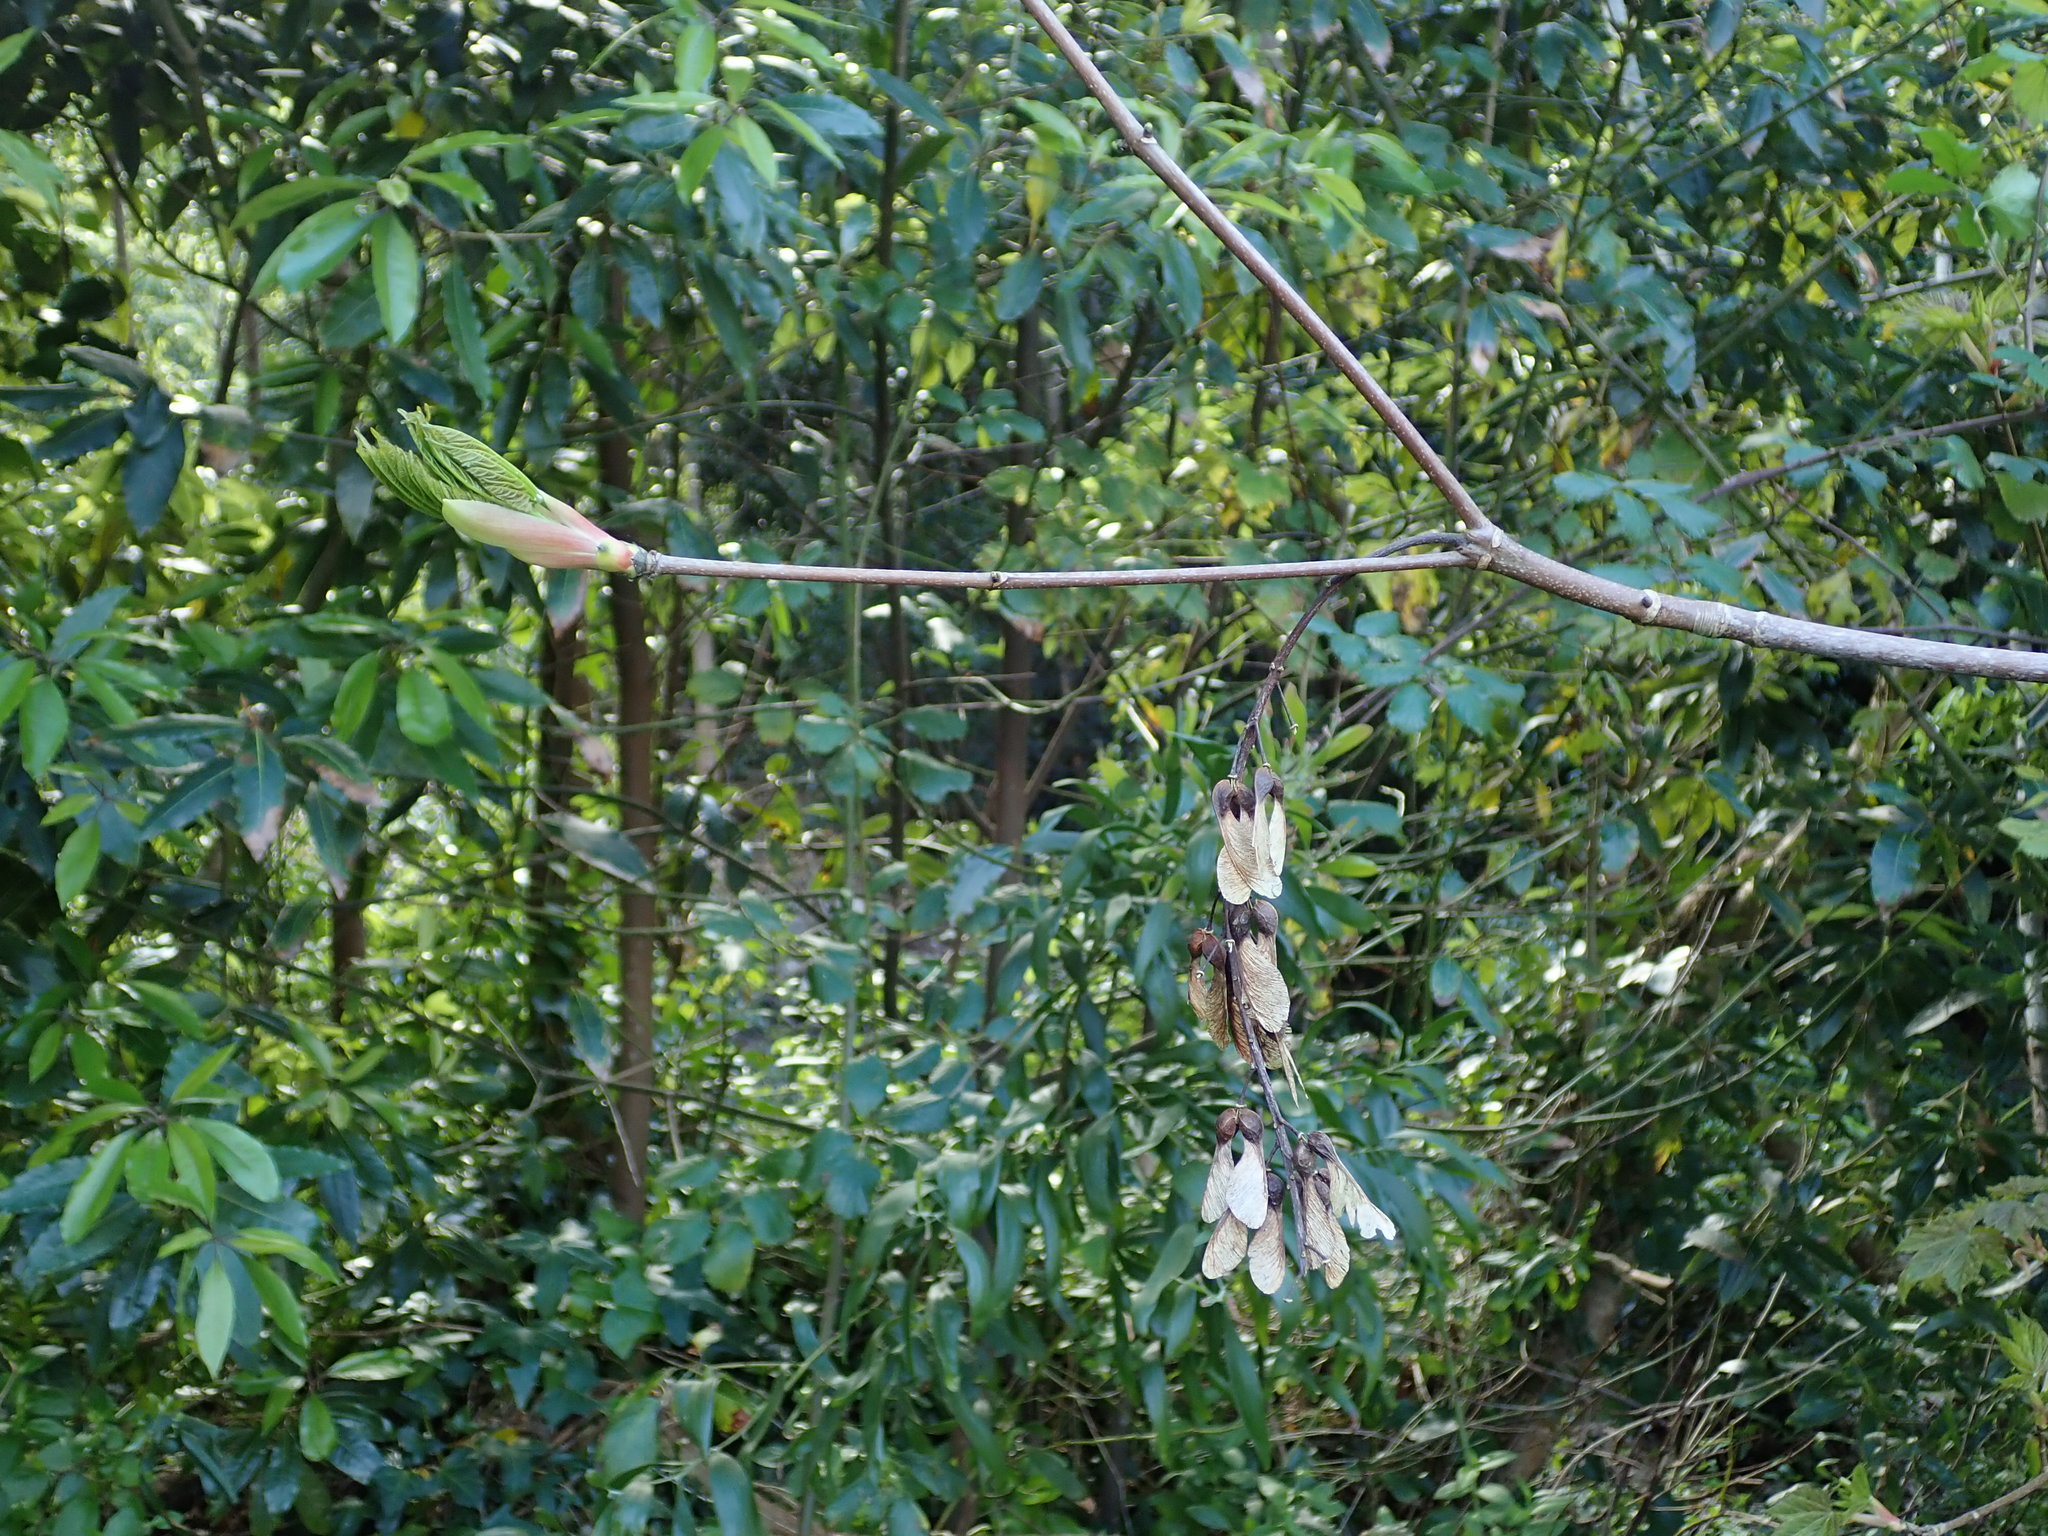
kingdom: Plantae
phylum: Tracheophyta
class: Magnoliopsida
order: Sapindales
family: Sapindaceae
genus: Acer
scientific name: Acer pseudoplatanus
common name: Sycamore
